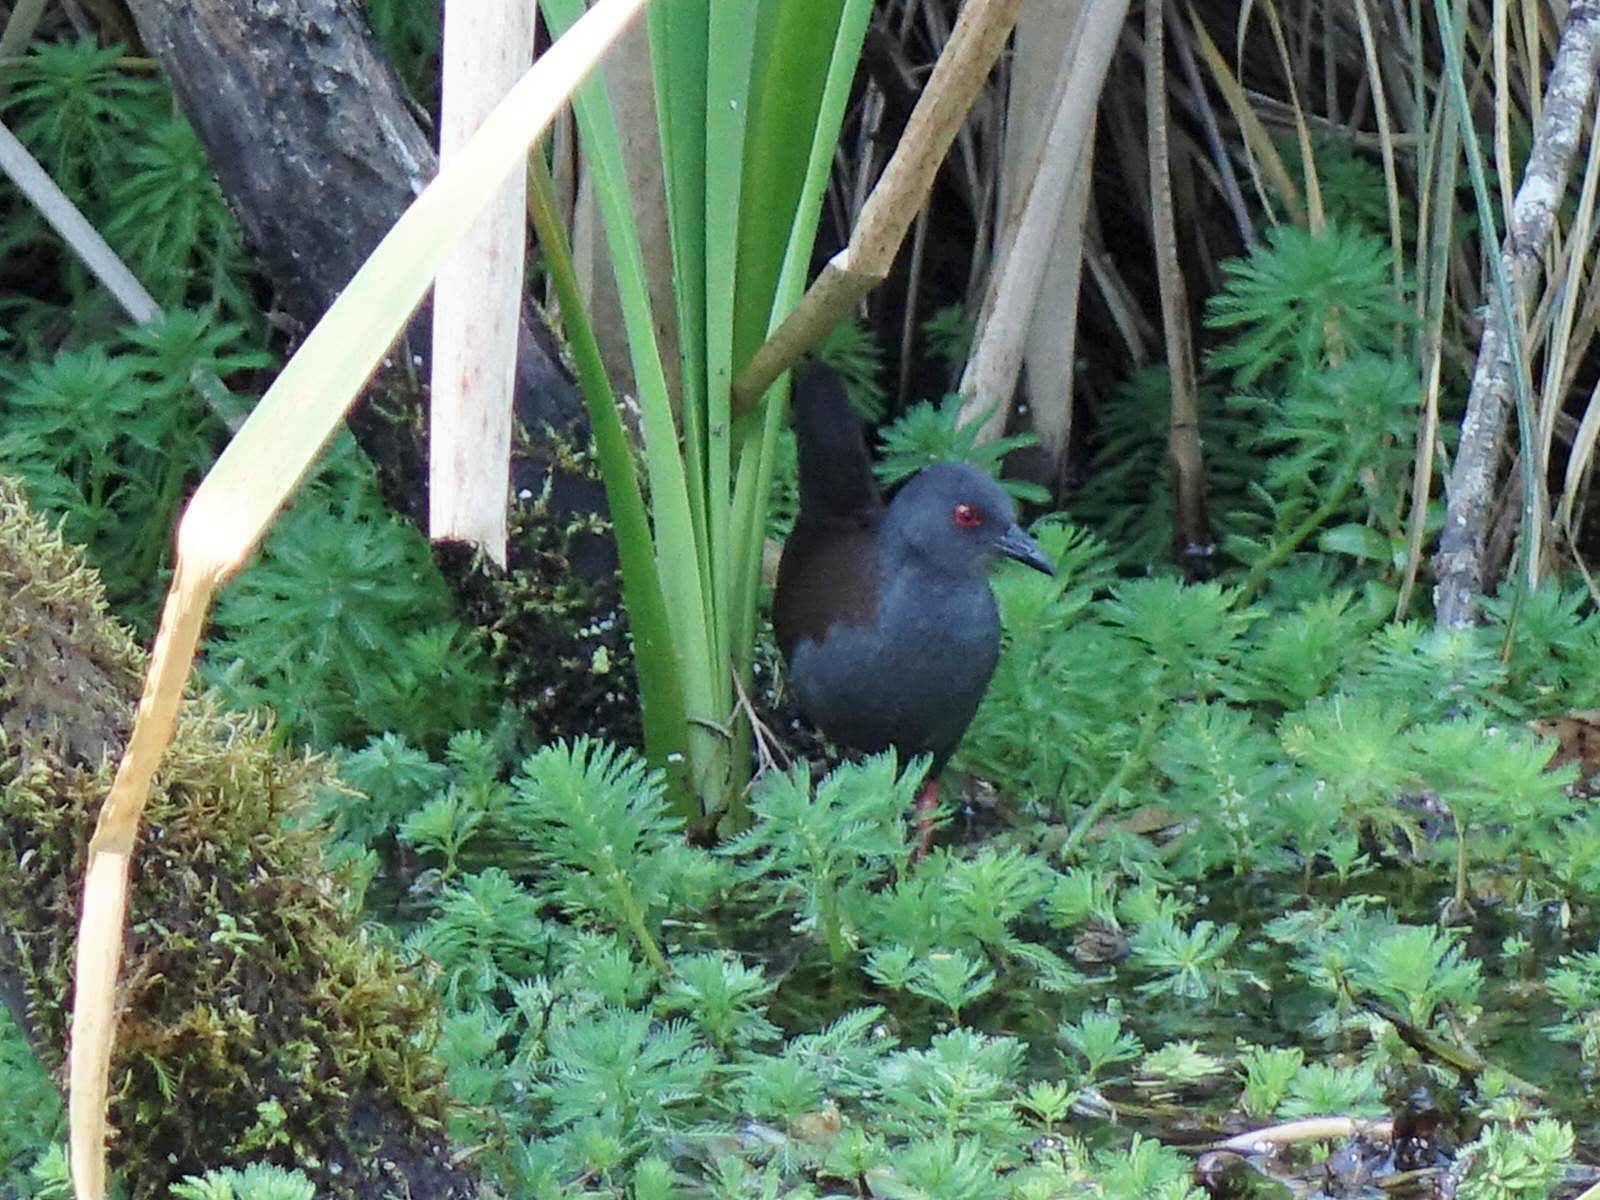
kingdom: Animalia
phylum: Chordata
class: Aves
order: Gruiformes
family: Rallidae
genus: Porzana
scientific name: Porzana tabuensis
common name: Spotless crake
